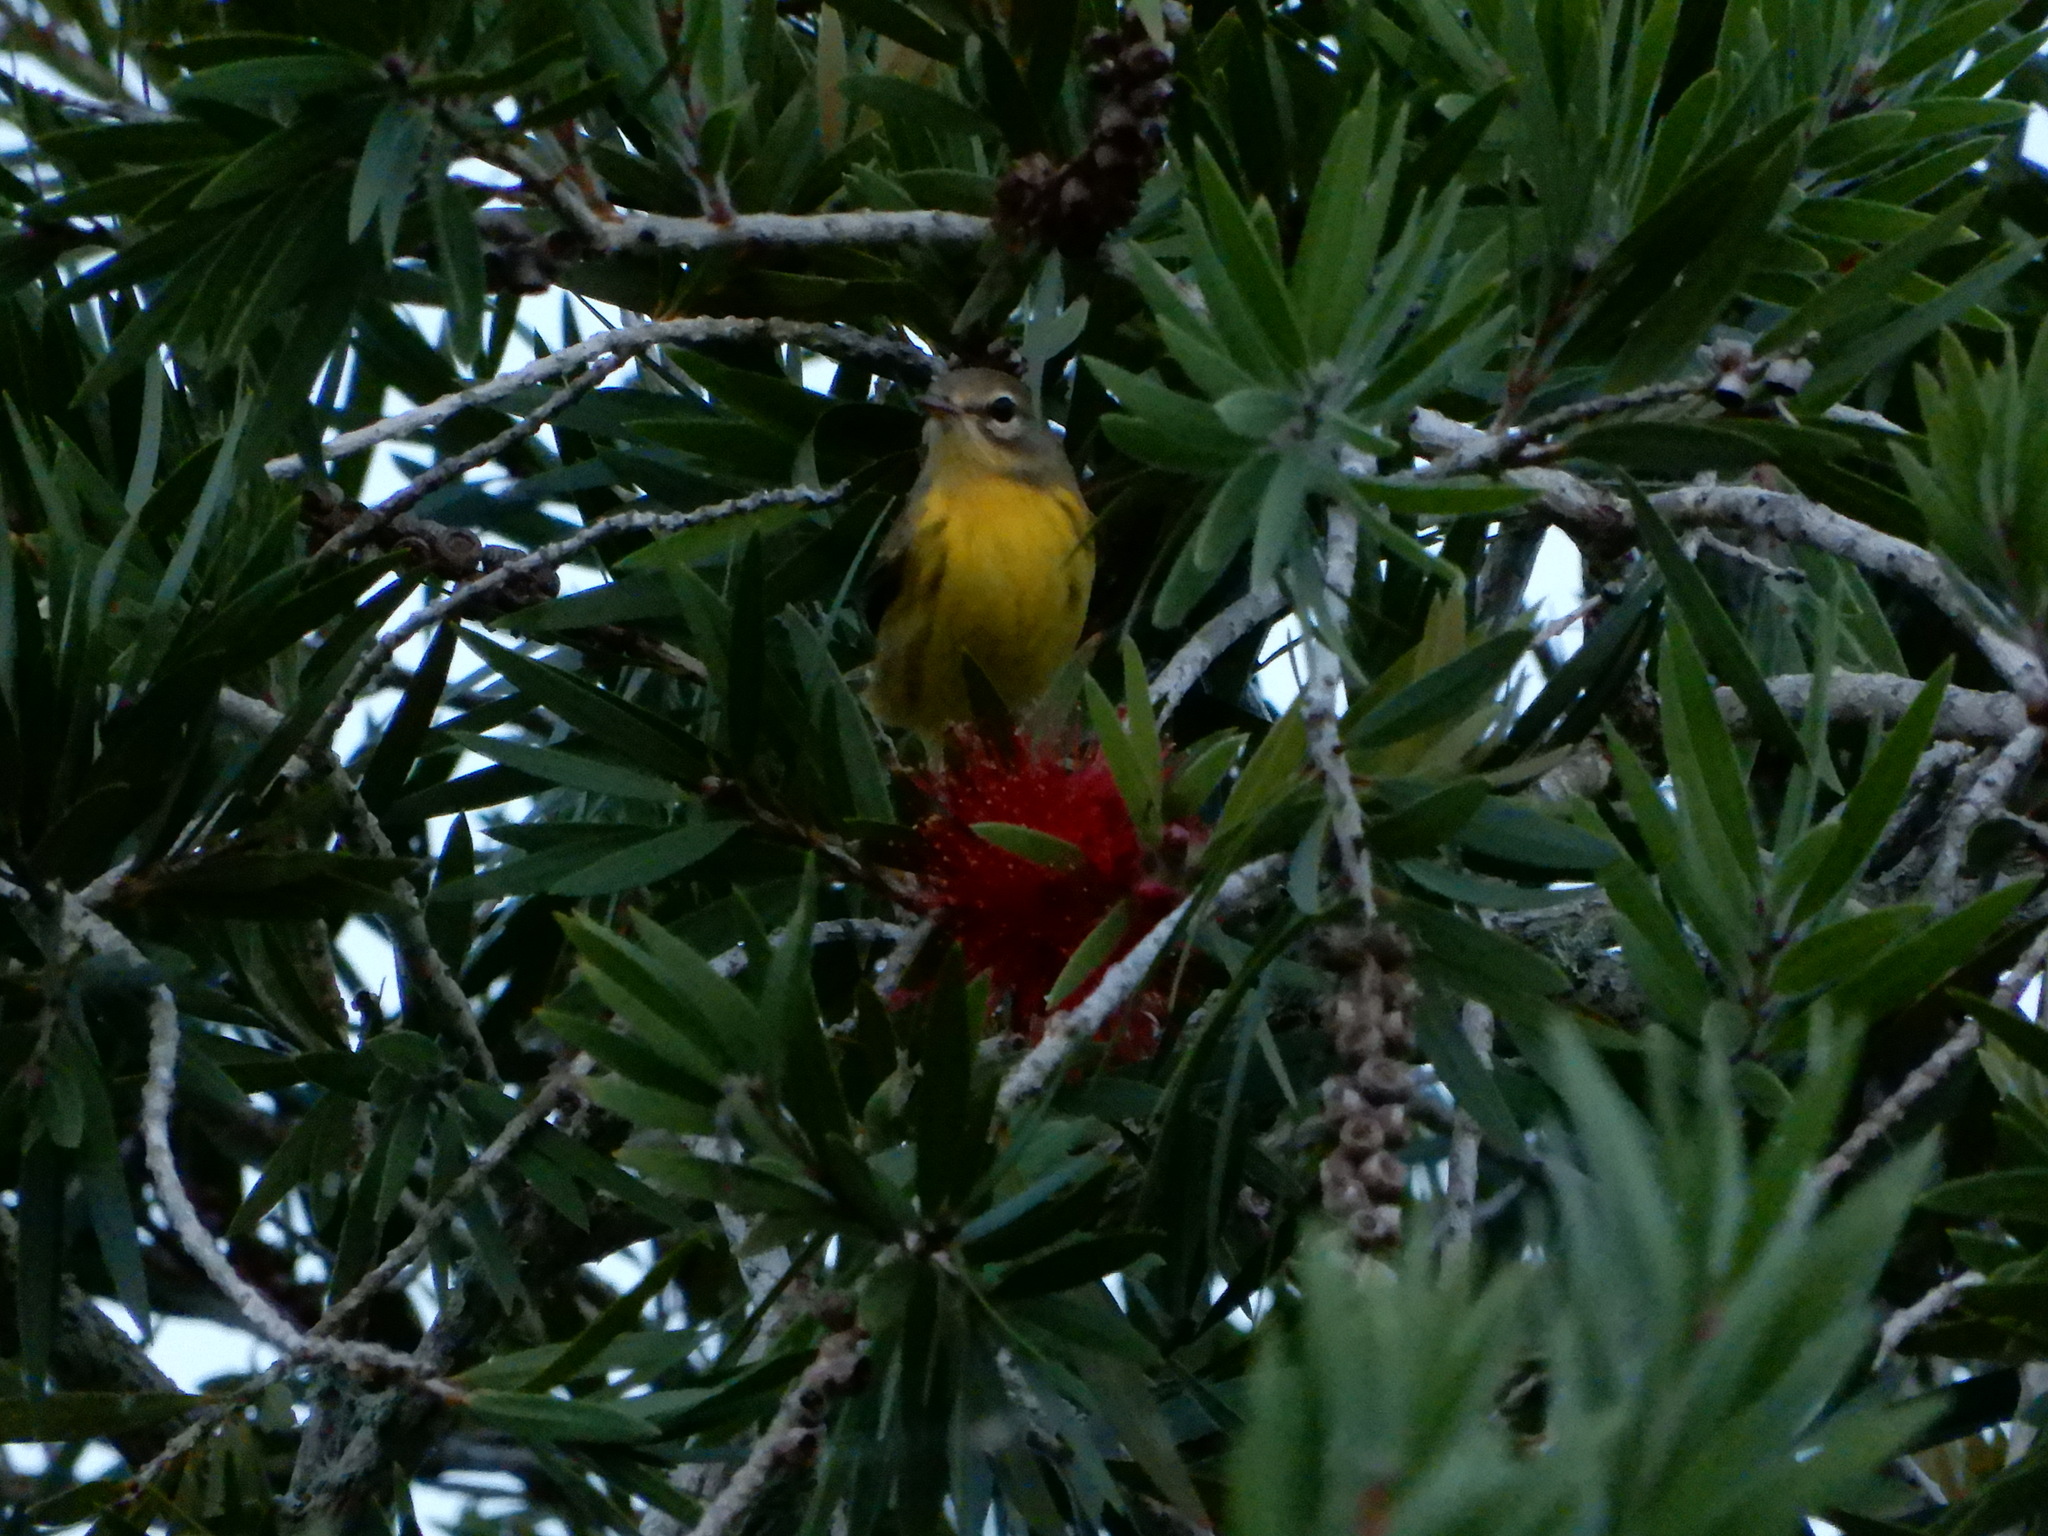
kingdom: Animalia
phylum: Chordata
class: Aves
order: Passeriformes
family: Parulidae
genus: Setophaga
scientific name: Setophaga discolor
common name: Prairie warbler
